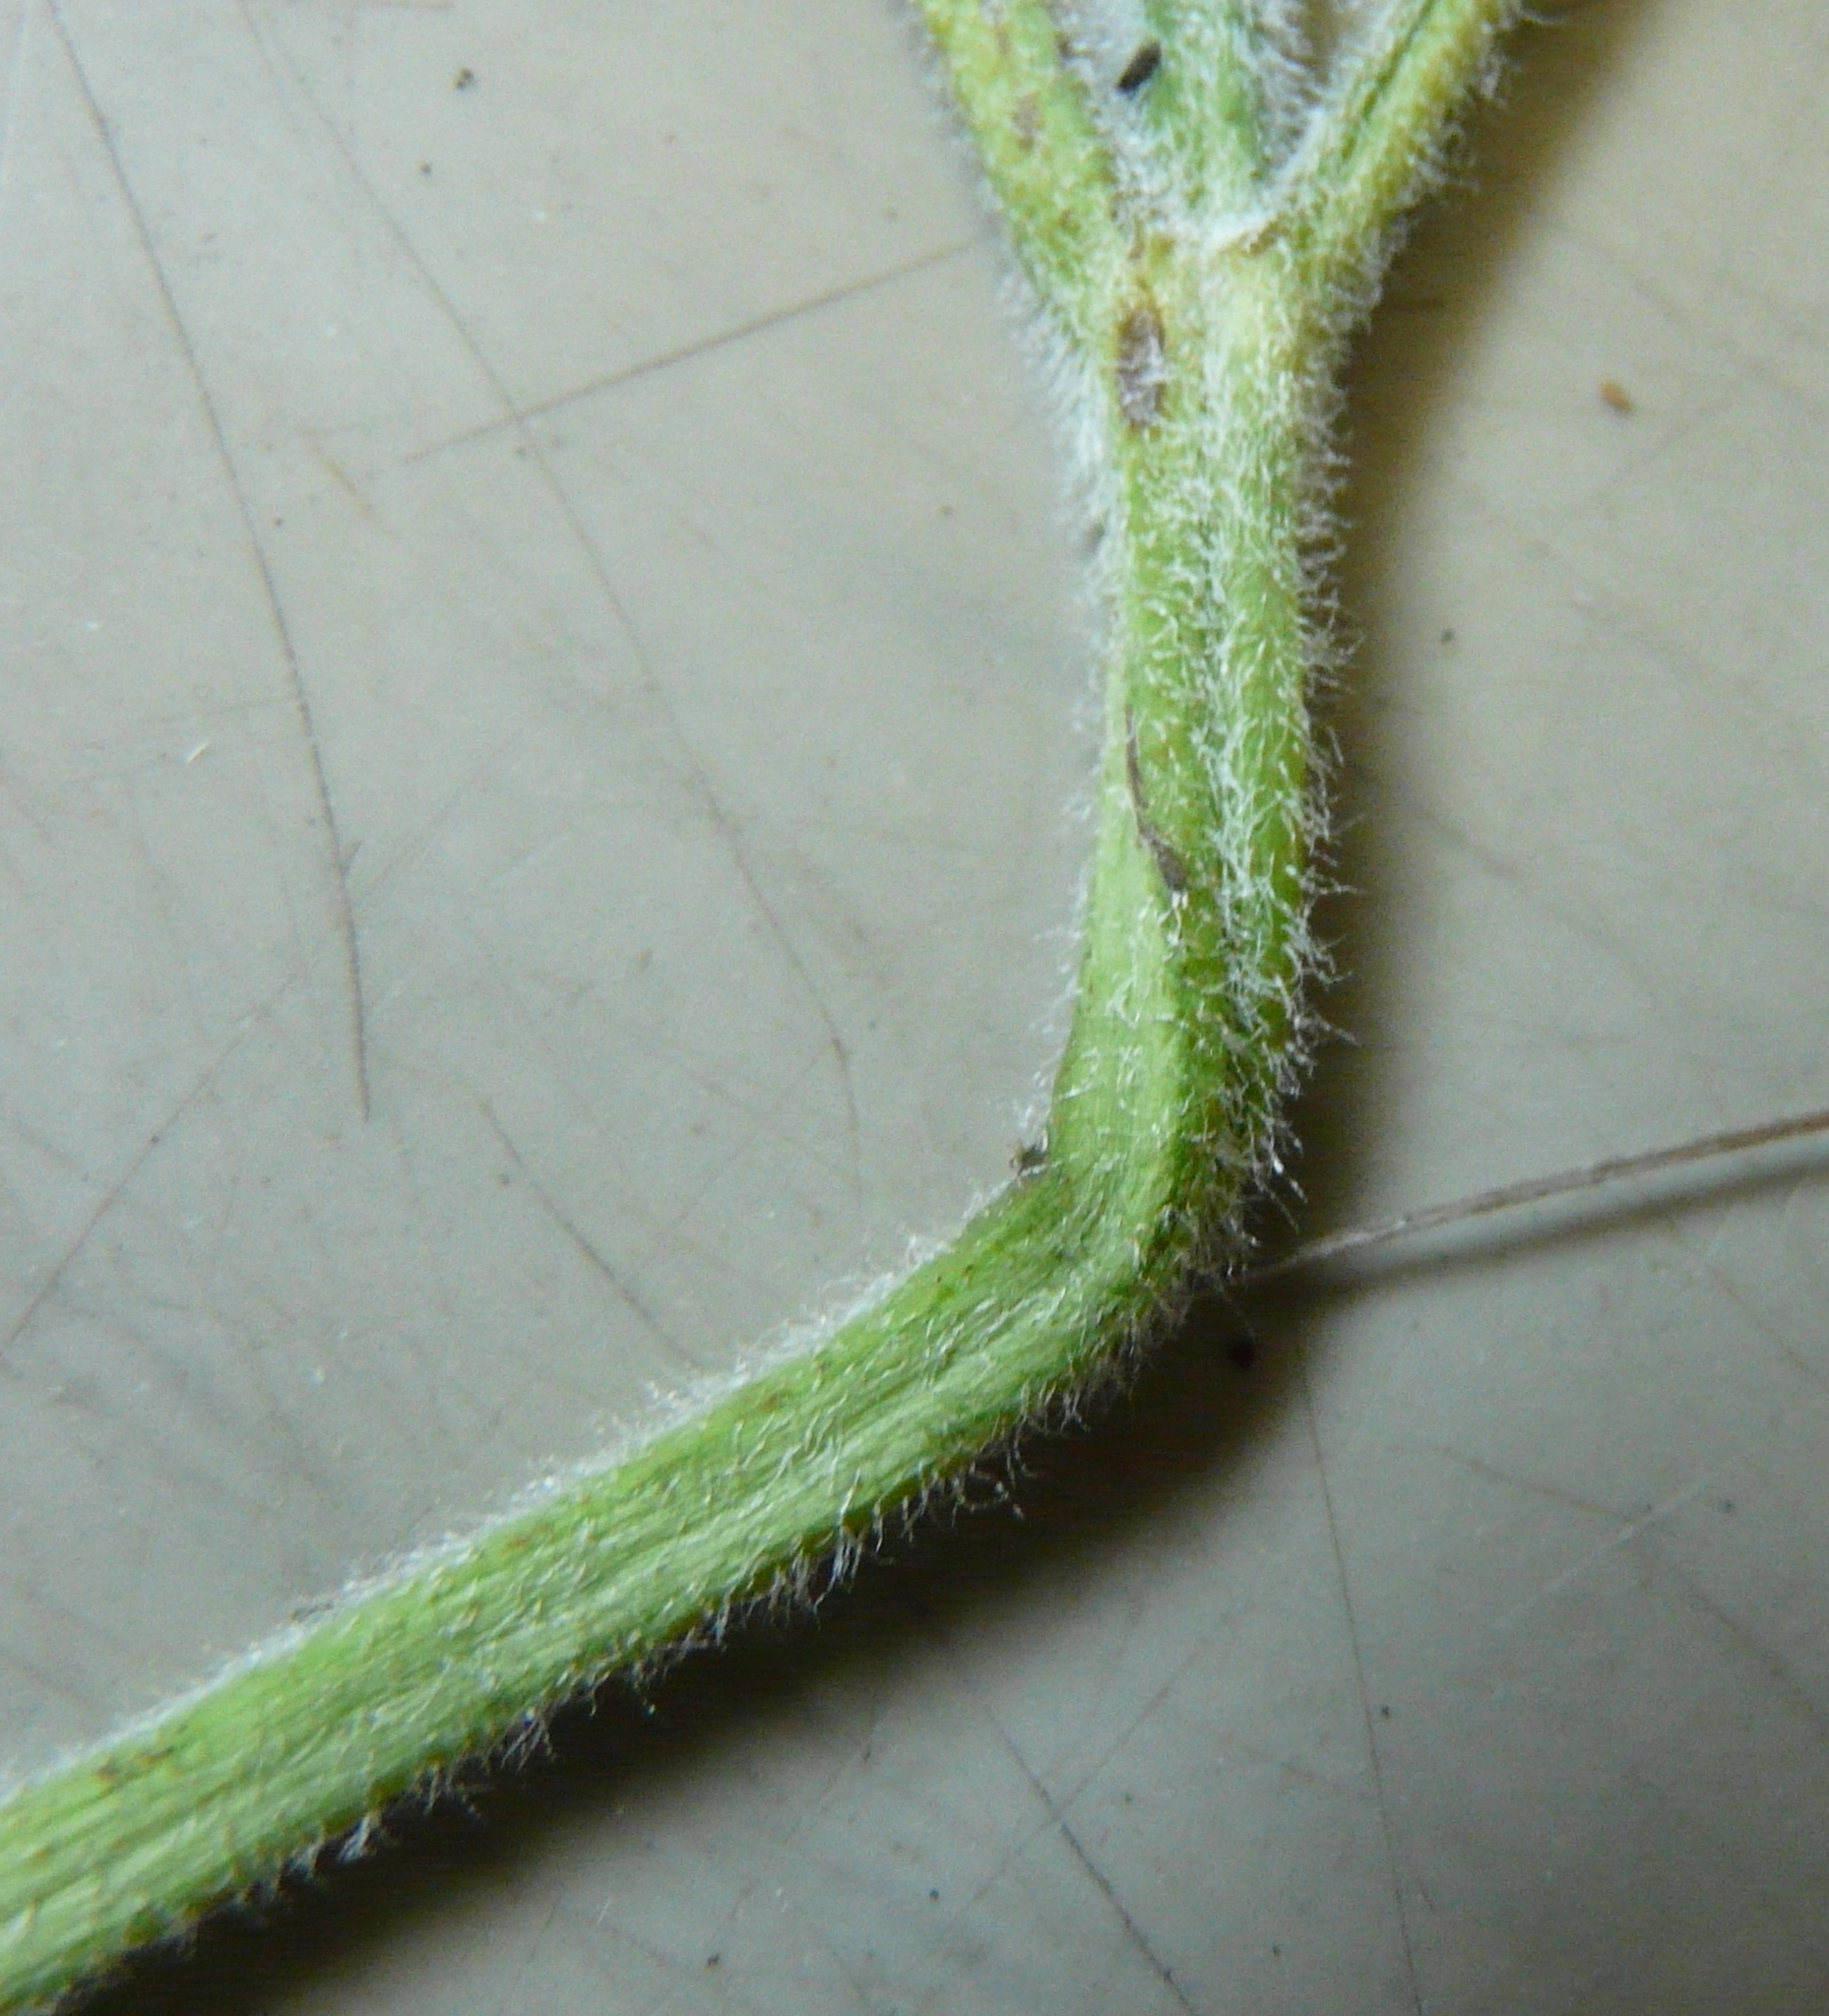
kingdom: Plantae
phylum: Tracheophyta
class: Magnoliopsida
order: Lamiales
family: Lamiaceae
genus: Salvia
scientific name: Salvia verticillata
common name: Whorled clary
